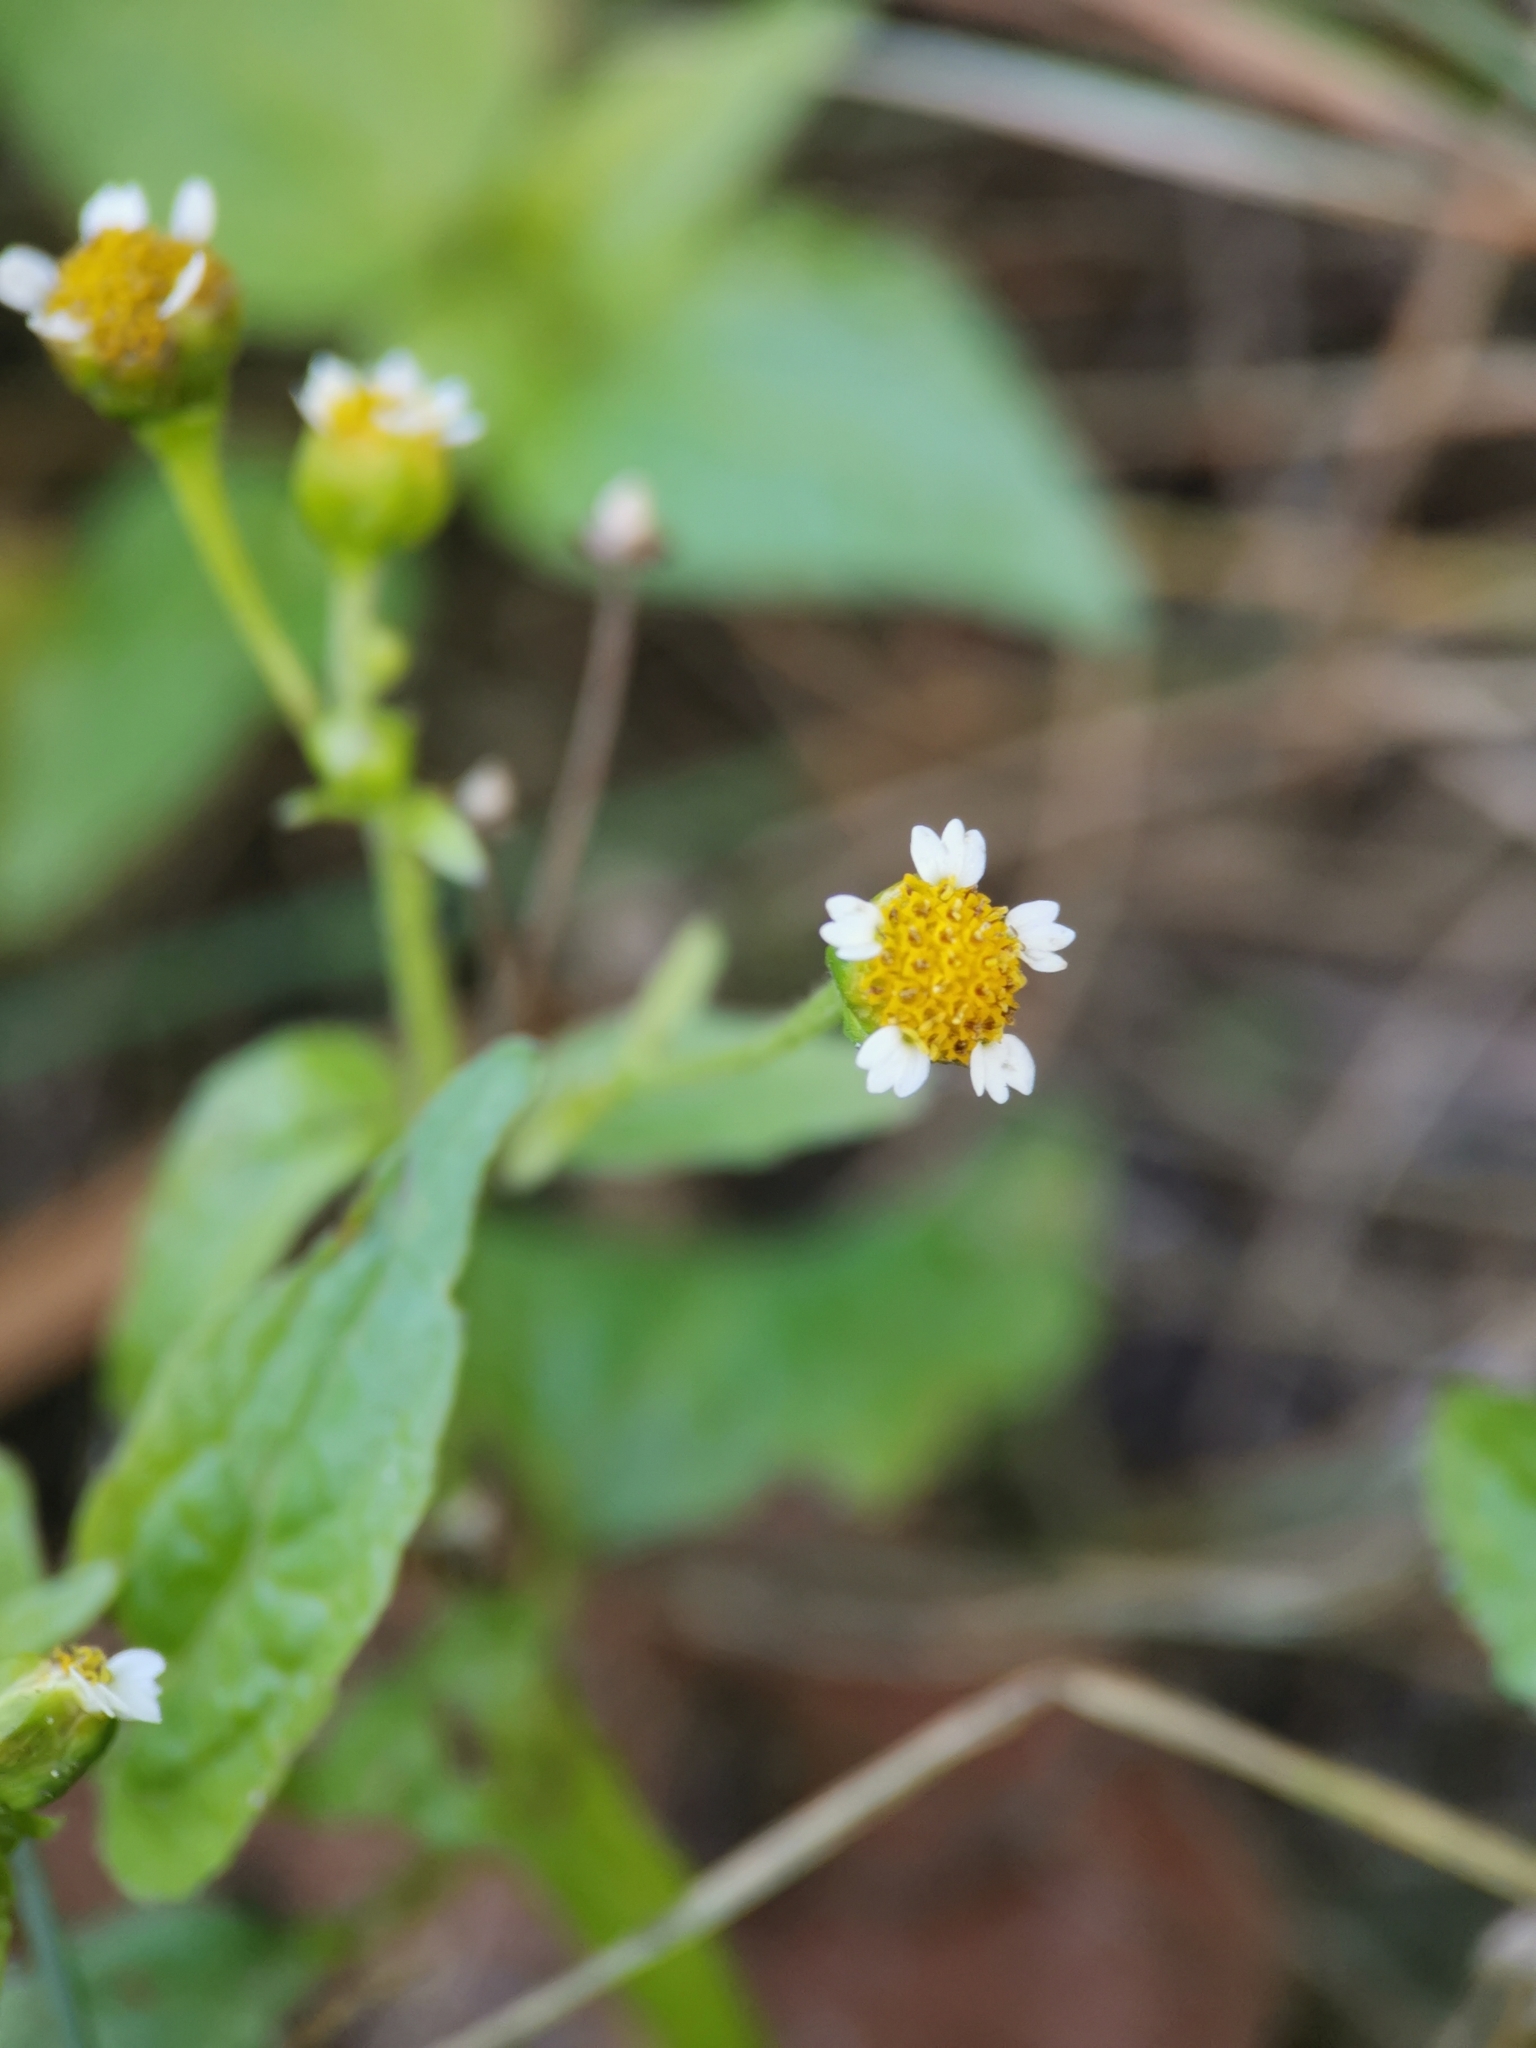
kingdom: Plantae
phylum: Tracheophyta
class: Magnoliopsida
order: Asterales
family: Asteraceae
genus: Galinsoga
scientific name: Galinsoga parviflora
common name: Gallant soldier
